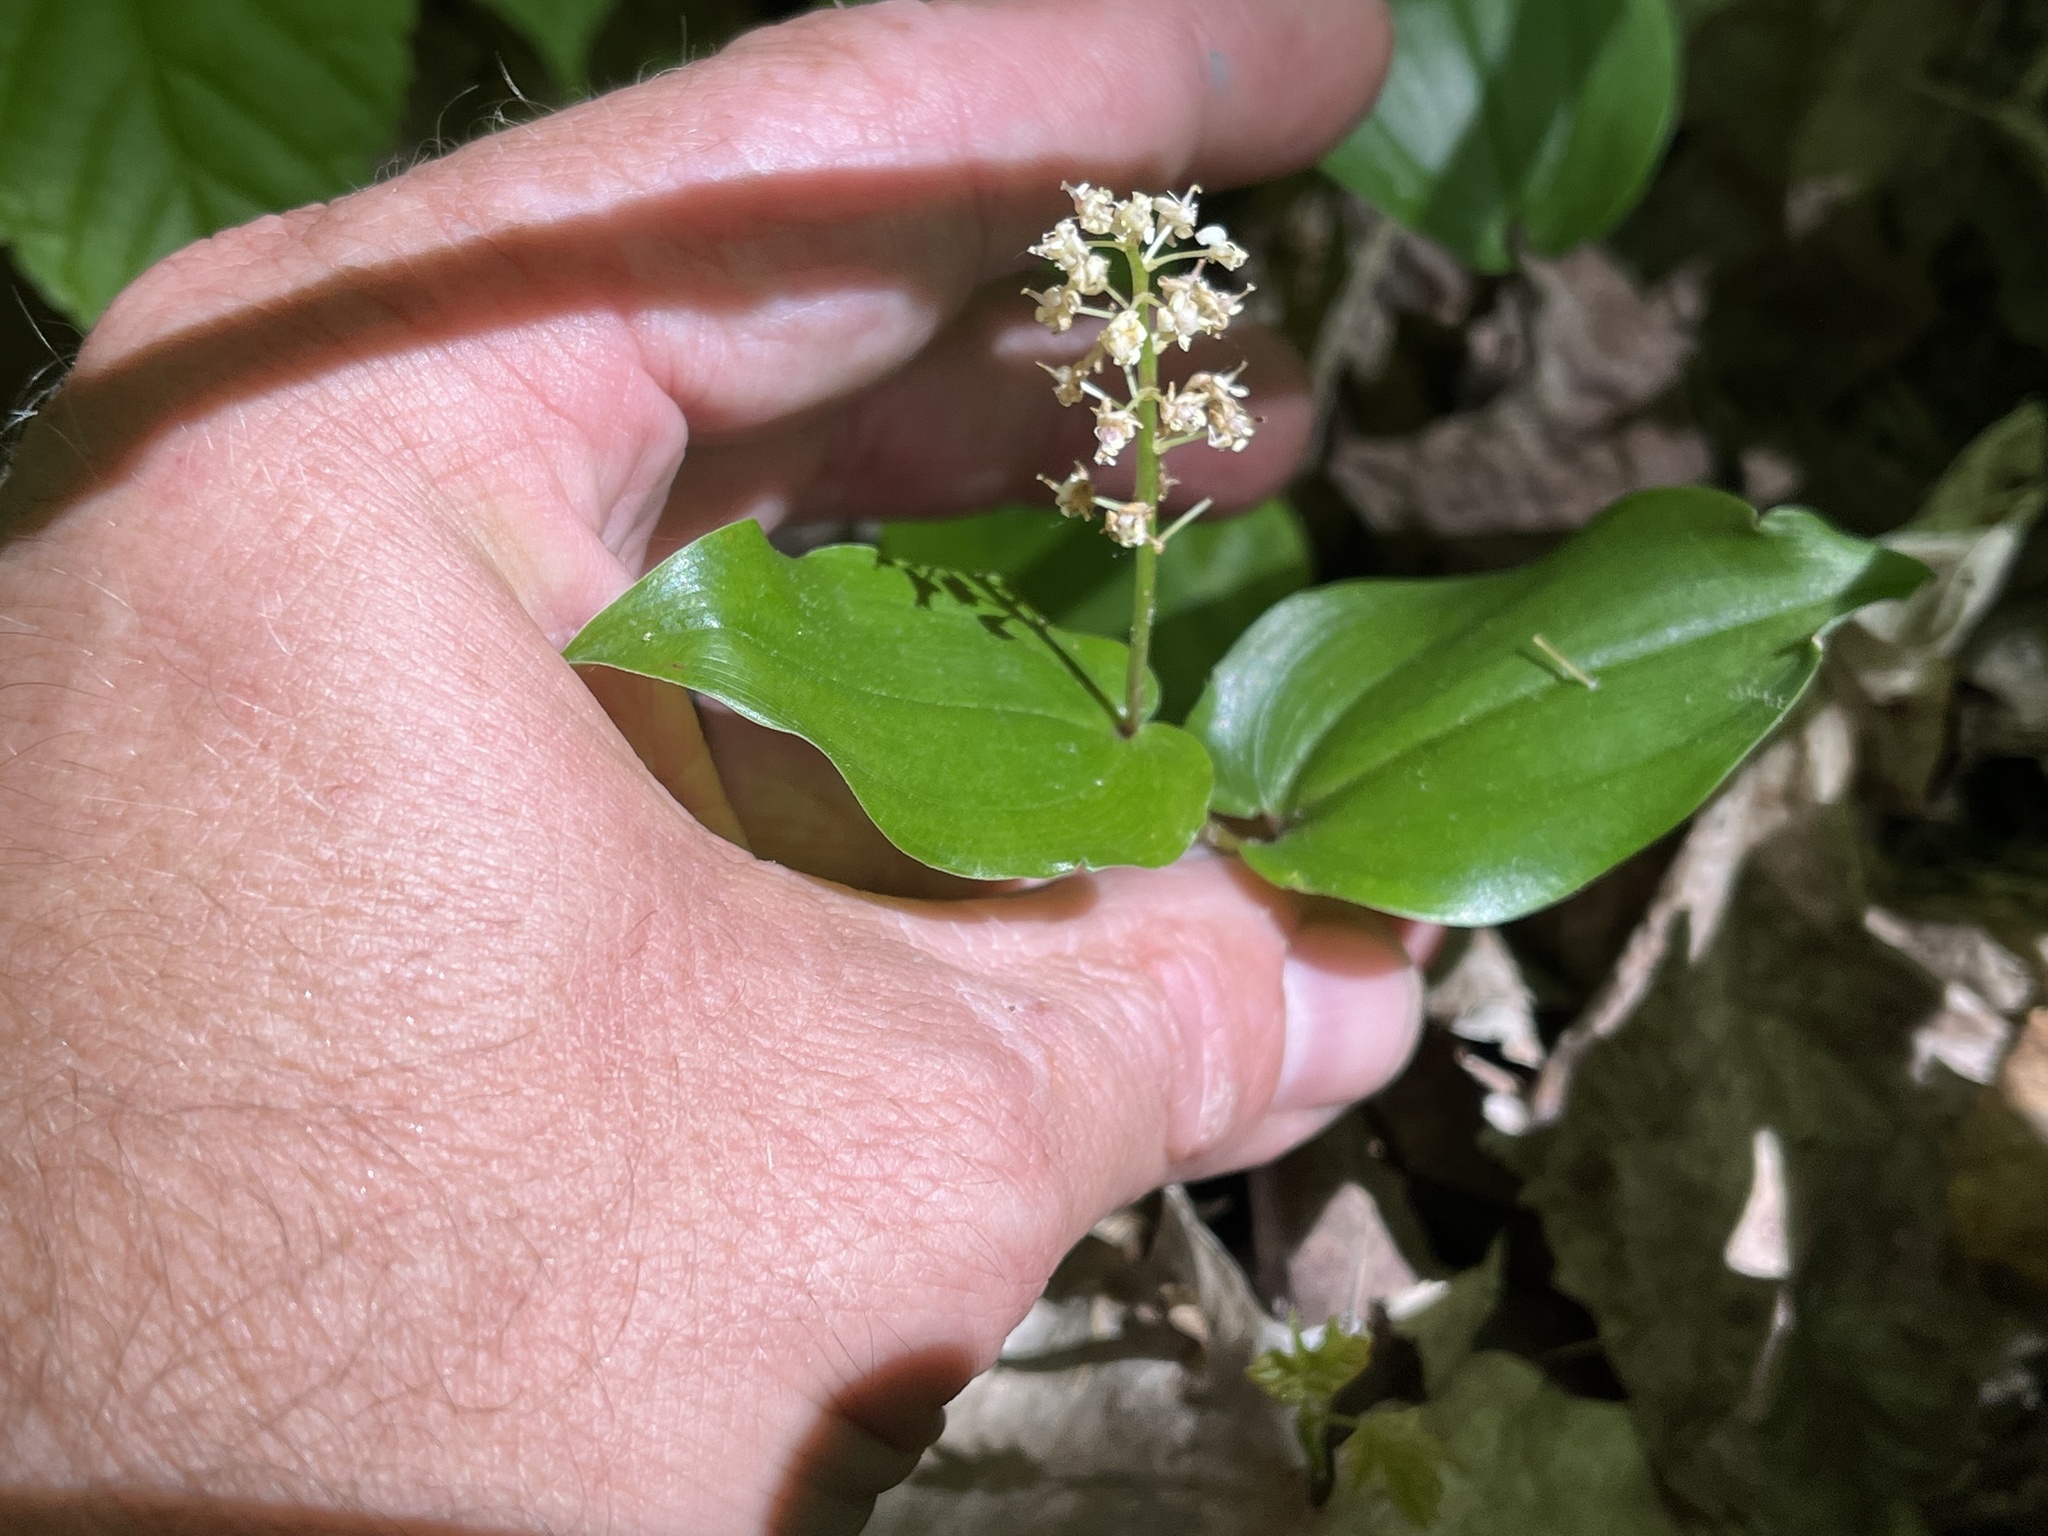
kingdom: Plantae
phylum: Tracheophyta
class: Liliopsida
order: Asparagales
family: Asparagaceae
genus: Maianthemum
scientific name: Maianthemum canadense
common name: False lily-of-the-valley
